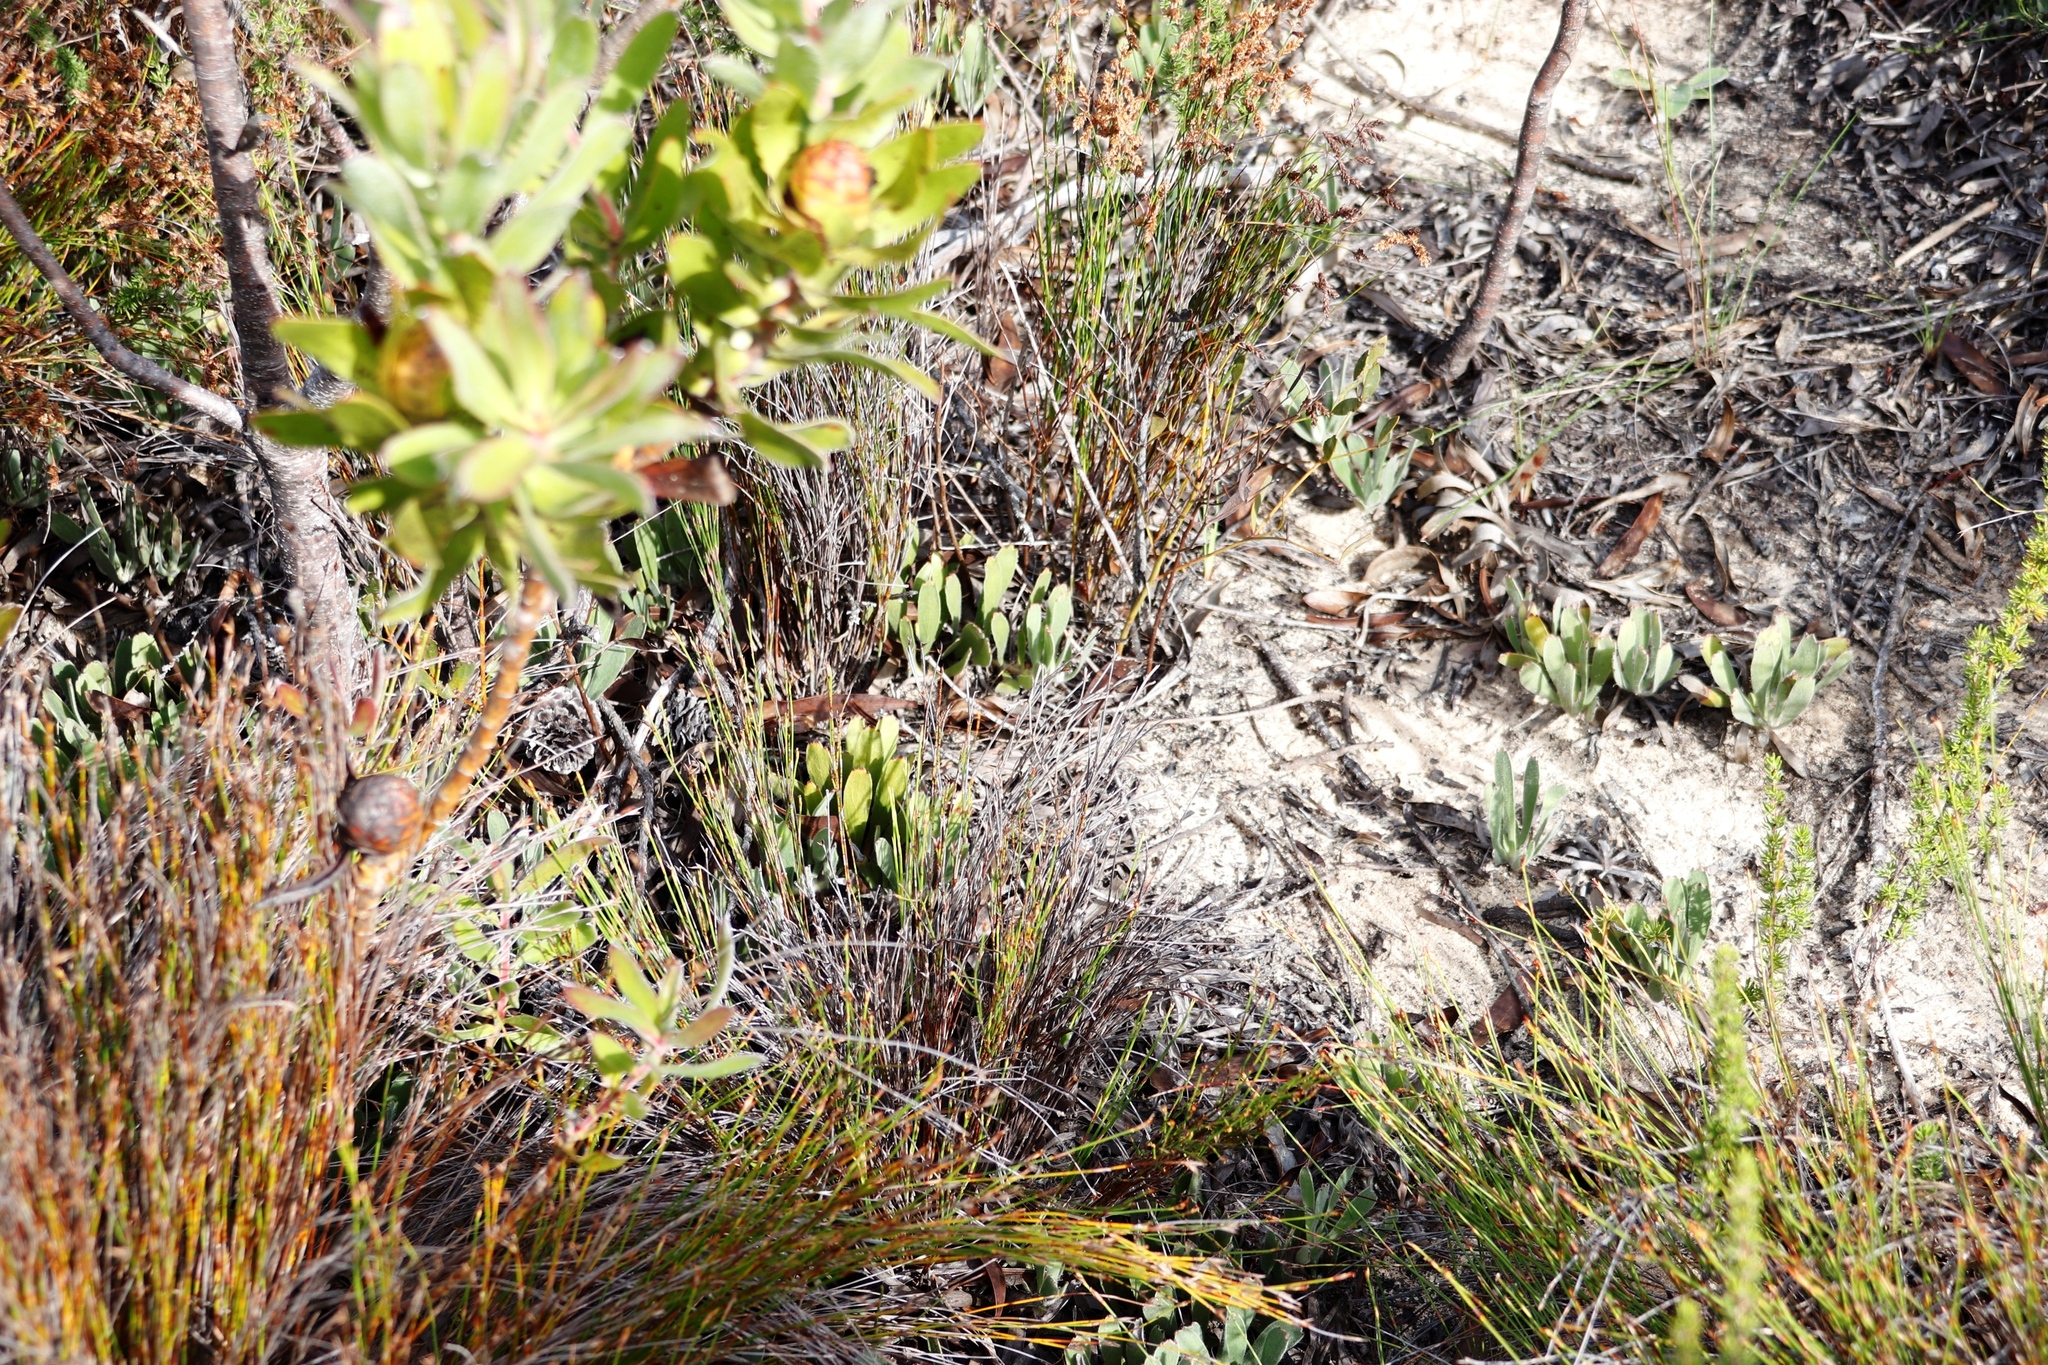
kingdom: Plantae
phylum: Tracheophyta
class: Magnoliopsida
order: Proteales
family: Proteaceae
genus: Leucospermum
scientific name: Leucospermum hypophyllocarpodendron
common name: Snakestem pincushion
